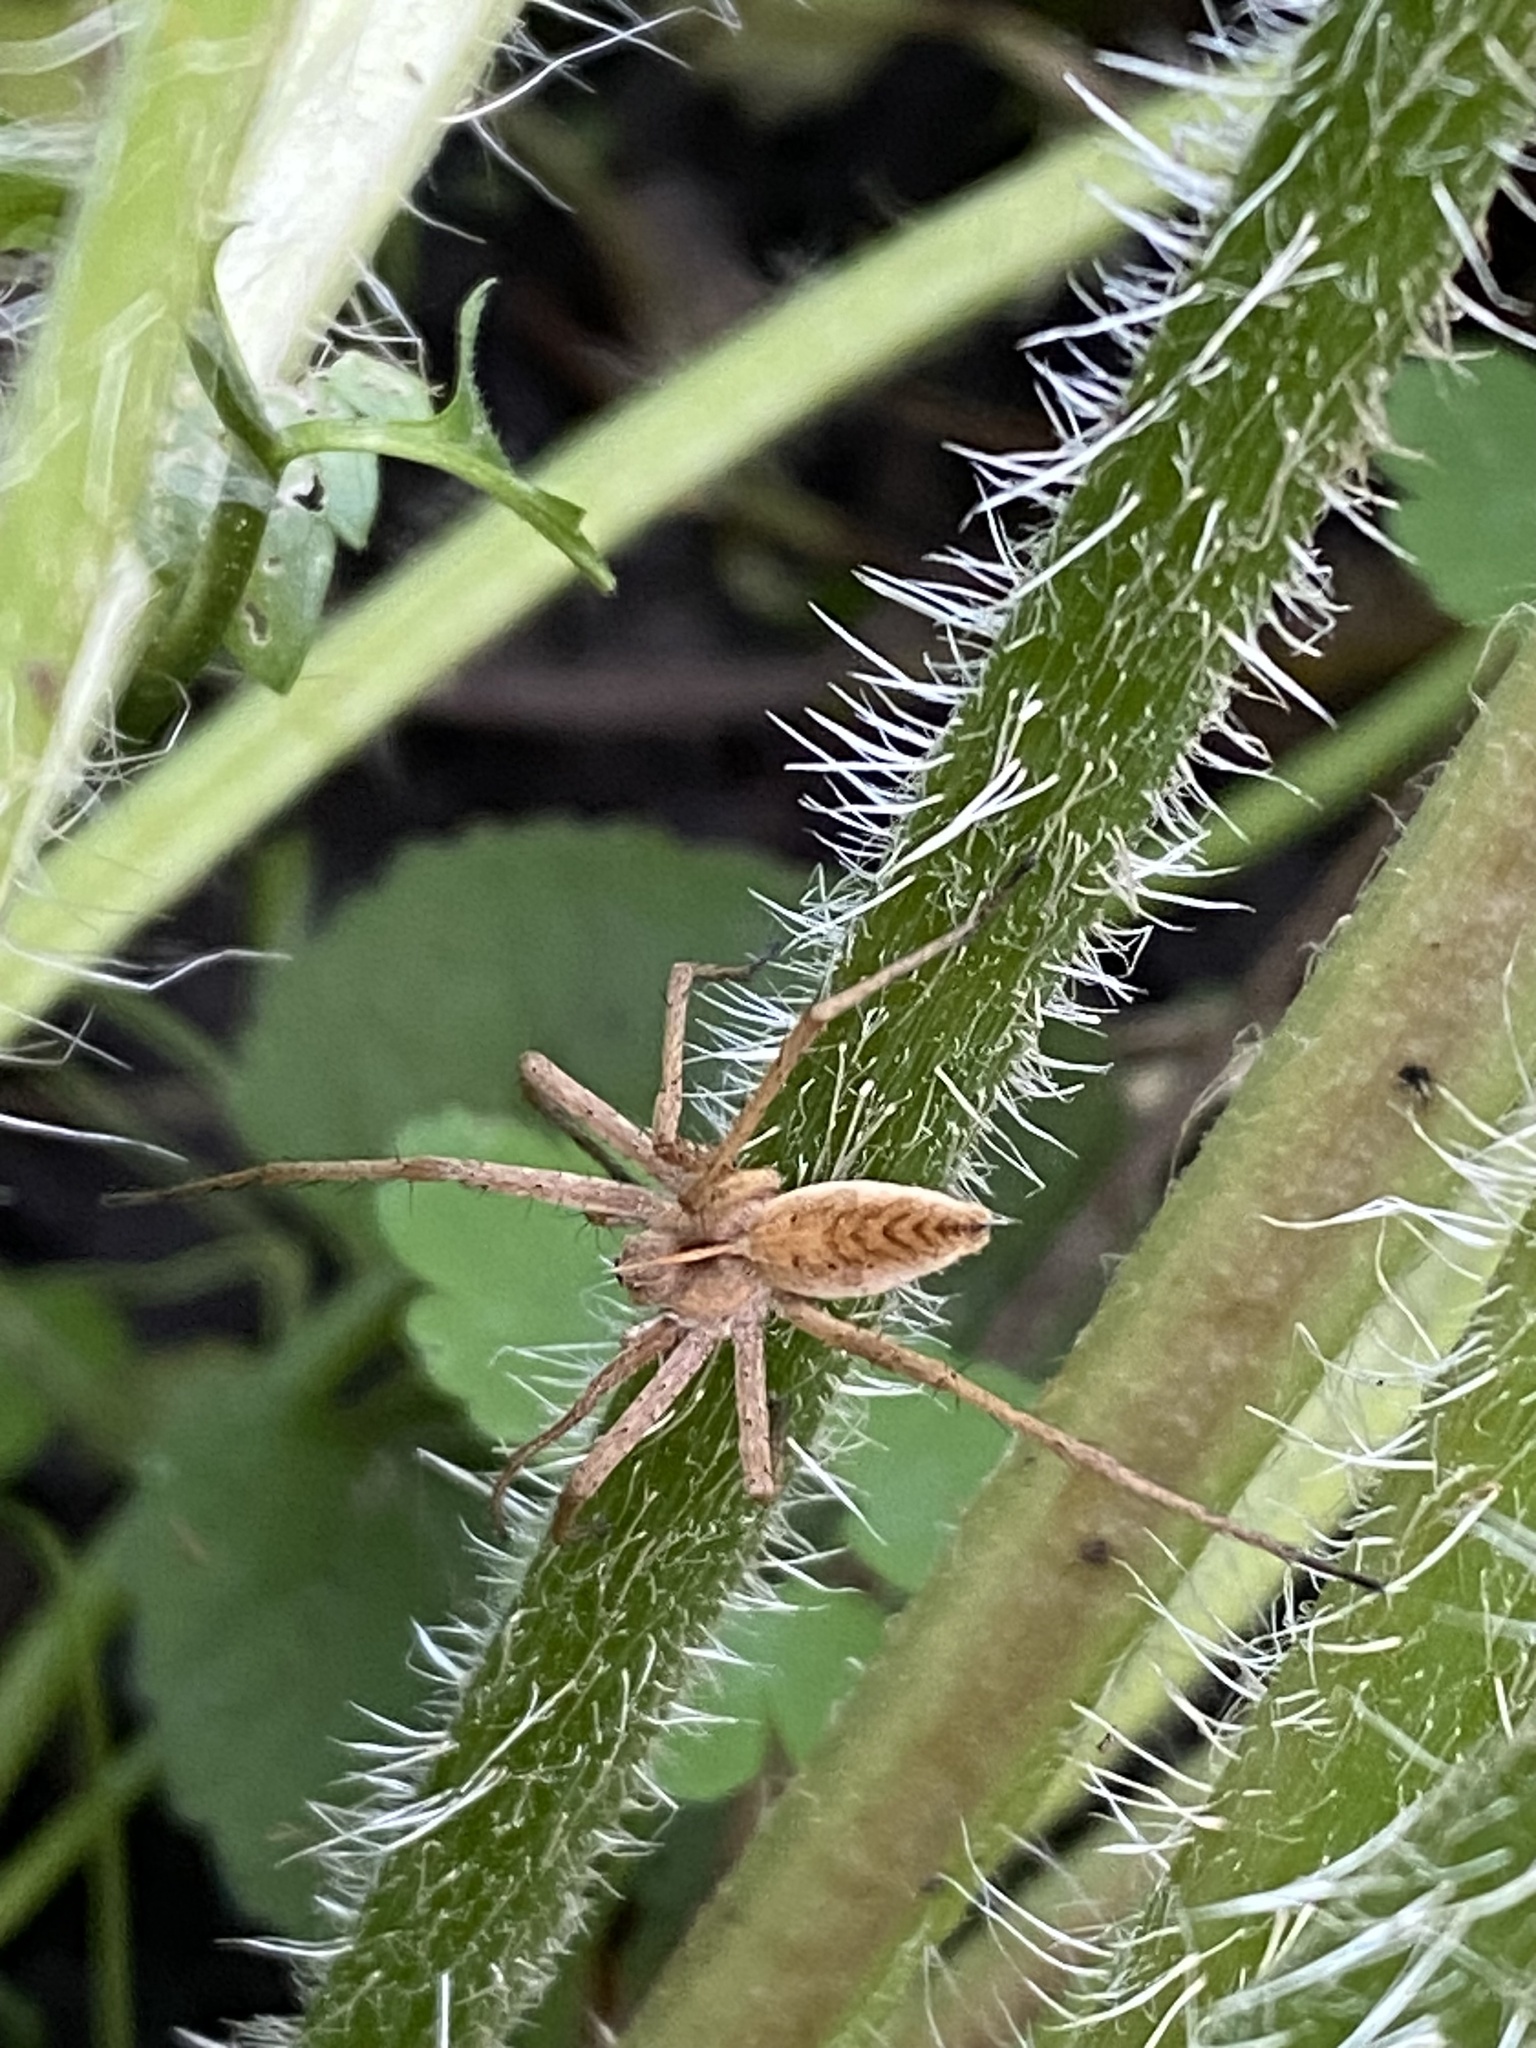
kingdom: Animalia
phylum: Arthropoda
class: Arachnida
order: Araneae
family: Pisauridae
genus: Pisaura
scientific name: Pisaura mirabilis
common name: Tent spider
